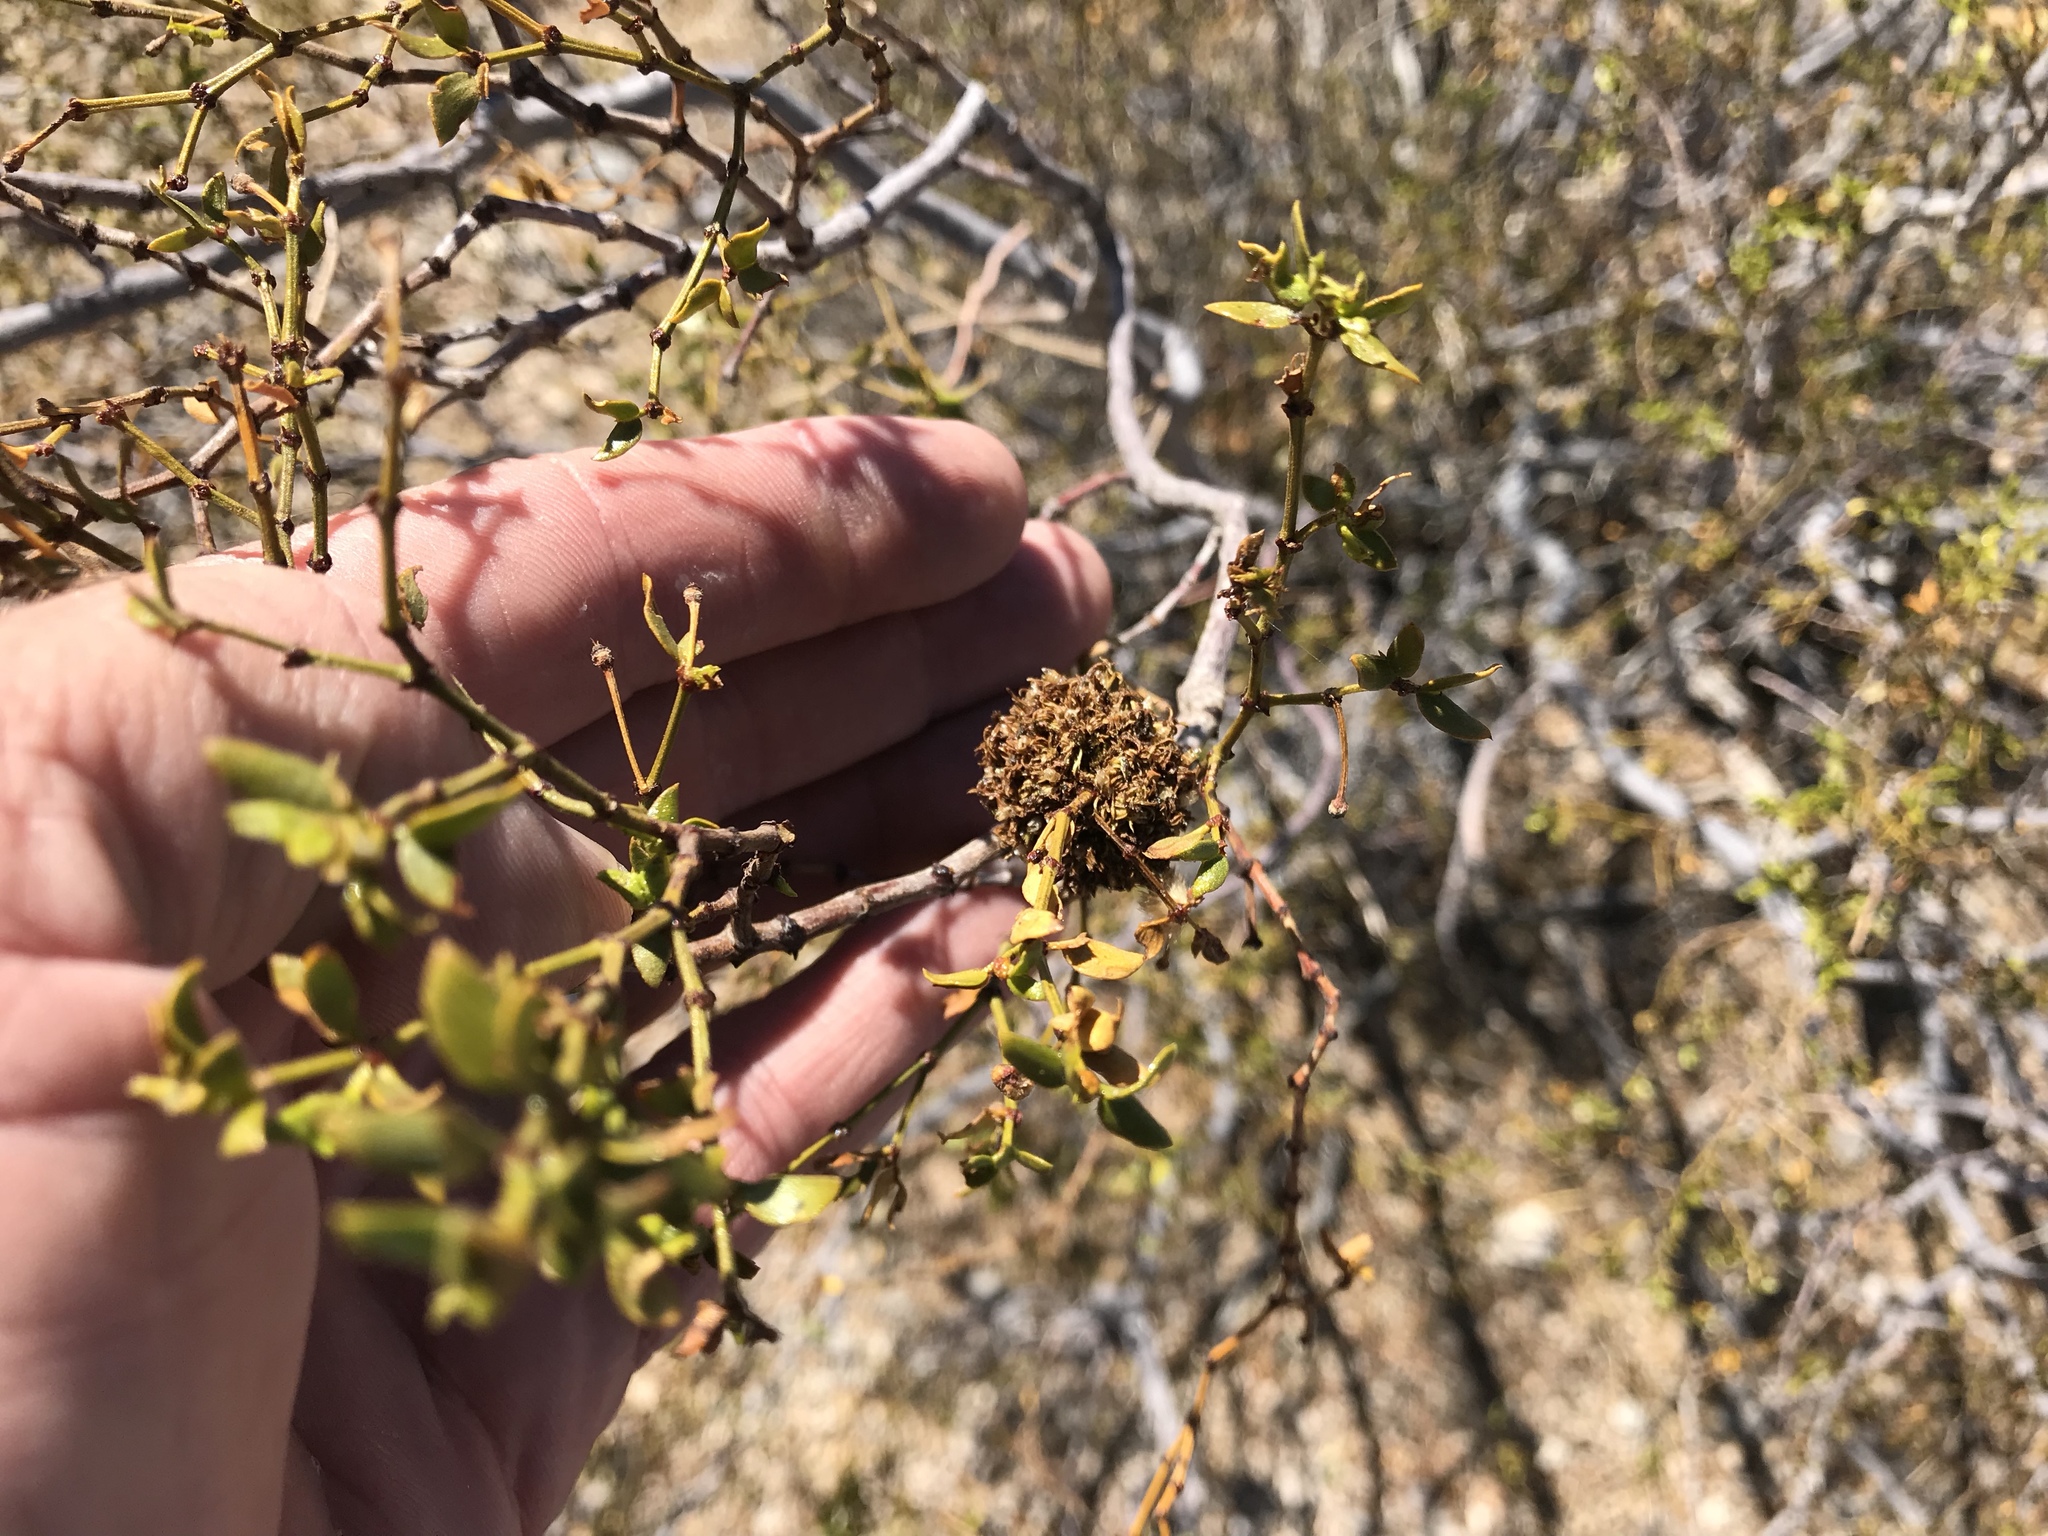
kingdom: Animalia
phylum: Arthropoda
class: Insecta
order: Diptera
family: Cecidomyiidae
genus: Asphondylia
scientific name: Asphondylia auripila
